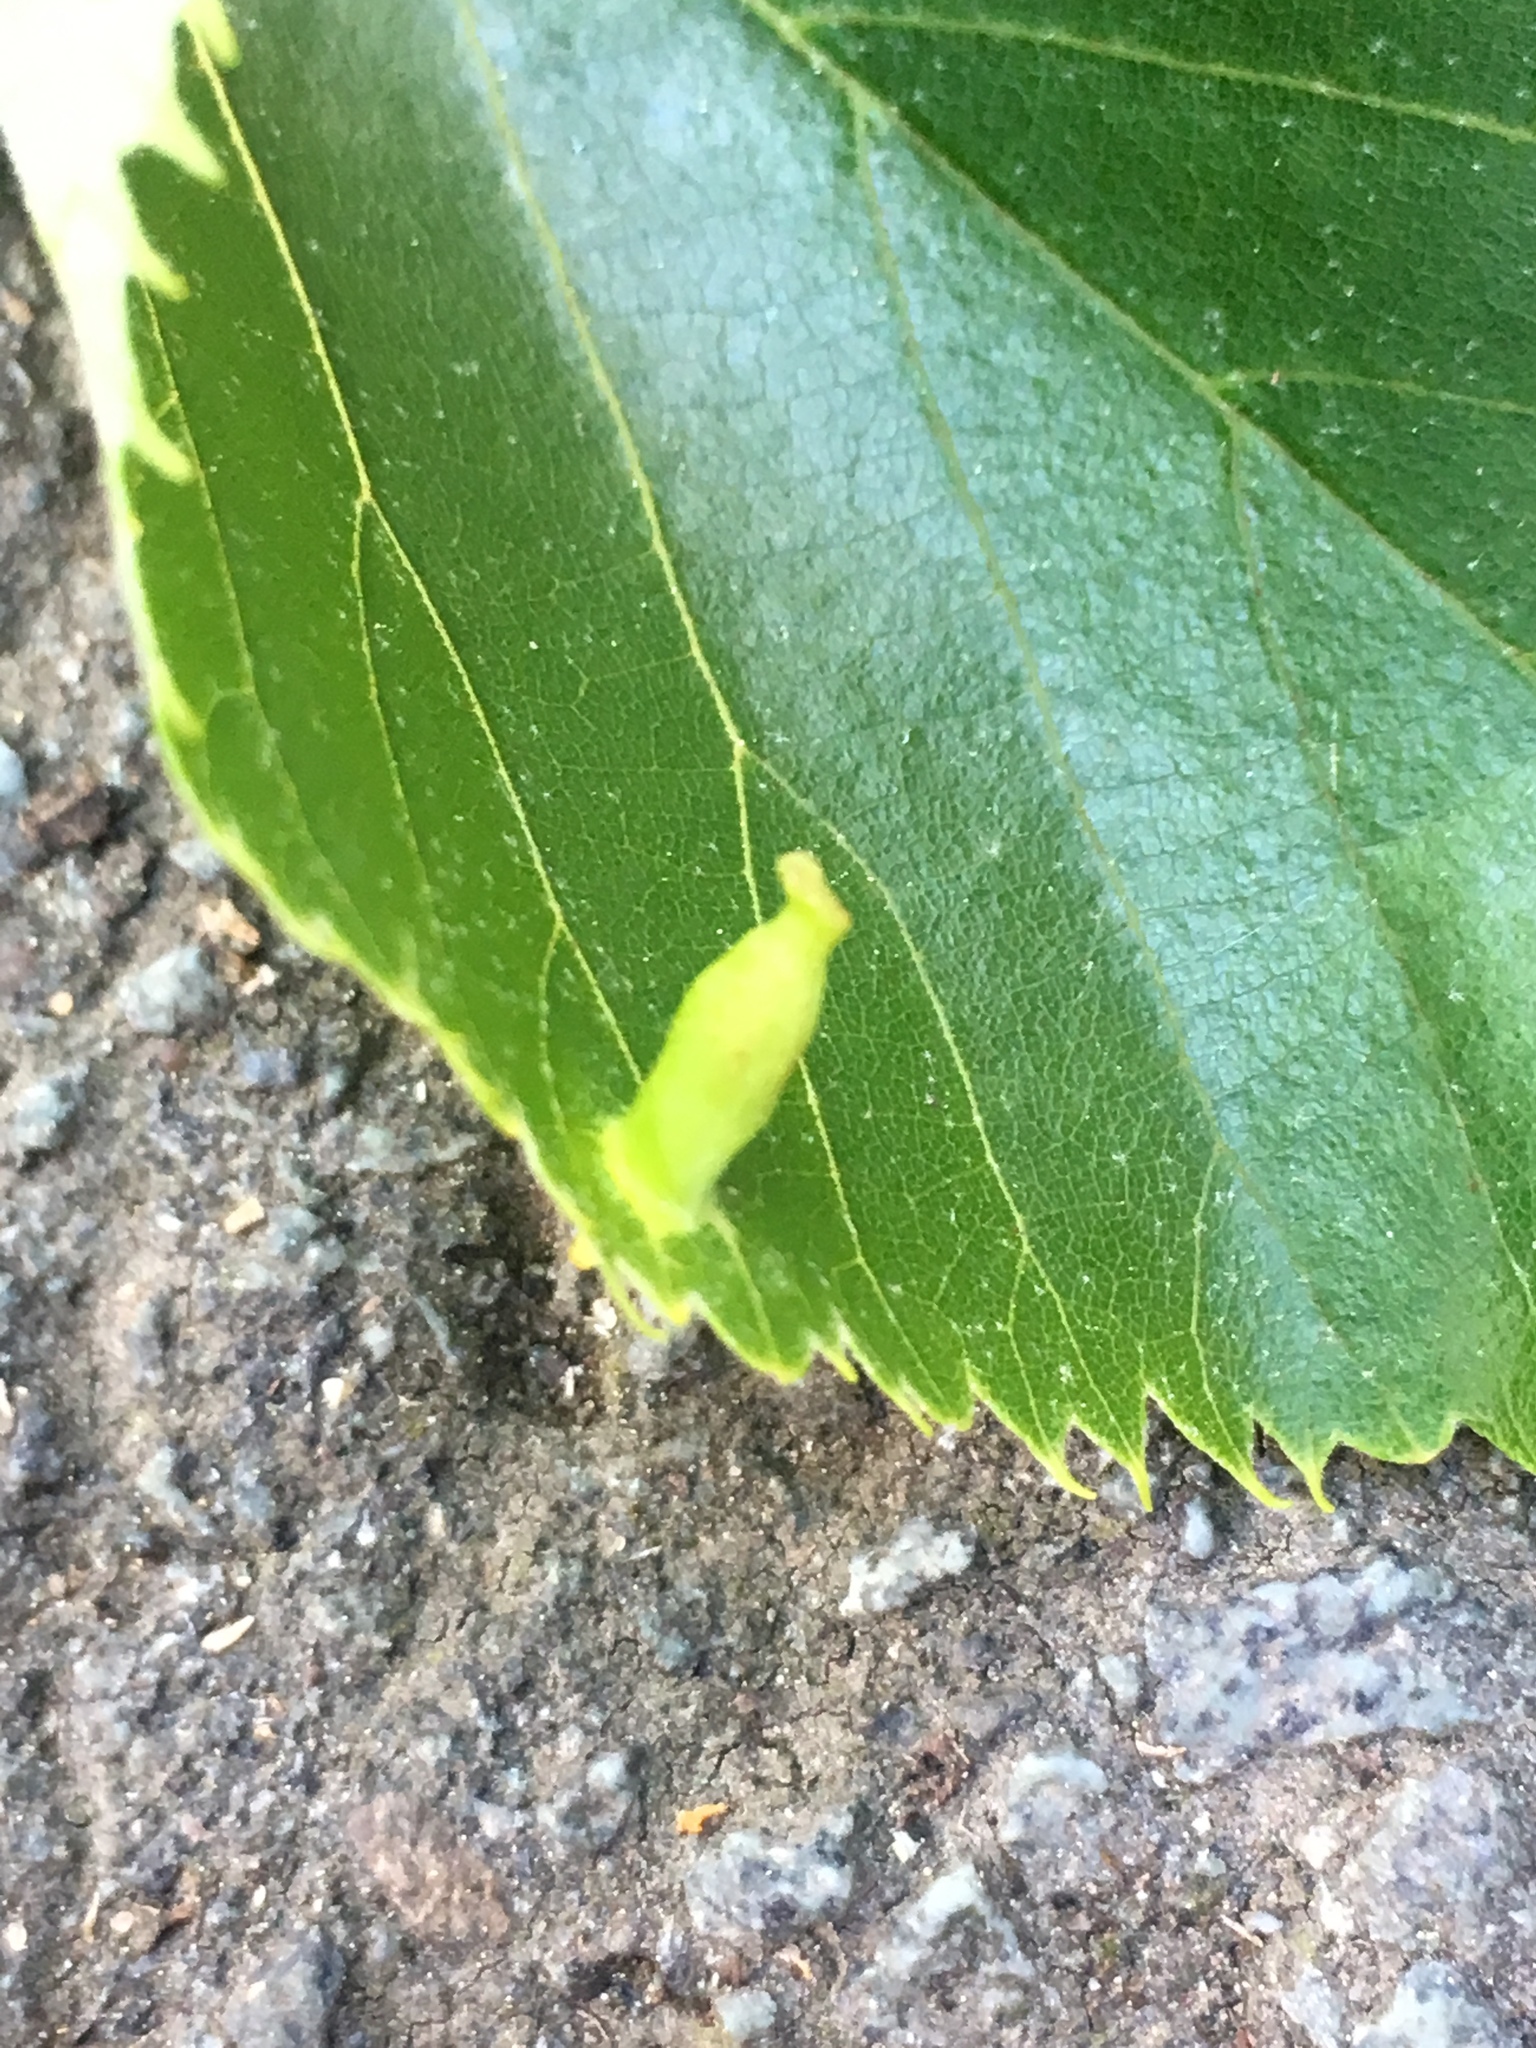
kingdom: Animalia
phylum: Arthropoda
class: Arachnida
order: Trombidiformes
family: Eriophyidae
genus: Eriophyes
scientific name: Eriophyes tiliae
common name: Red nail gall mite
